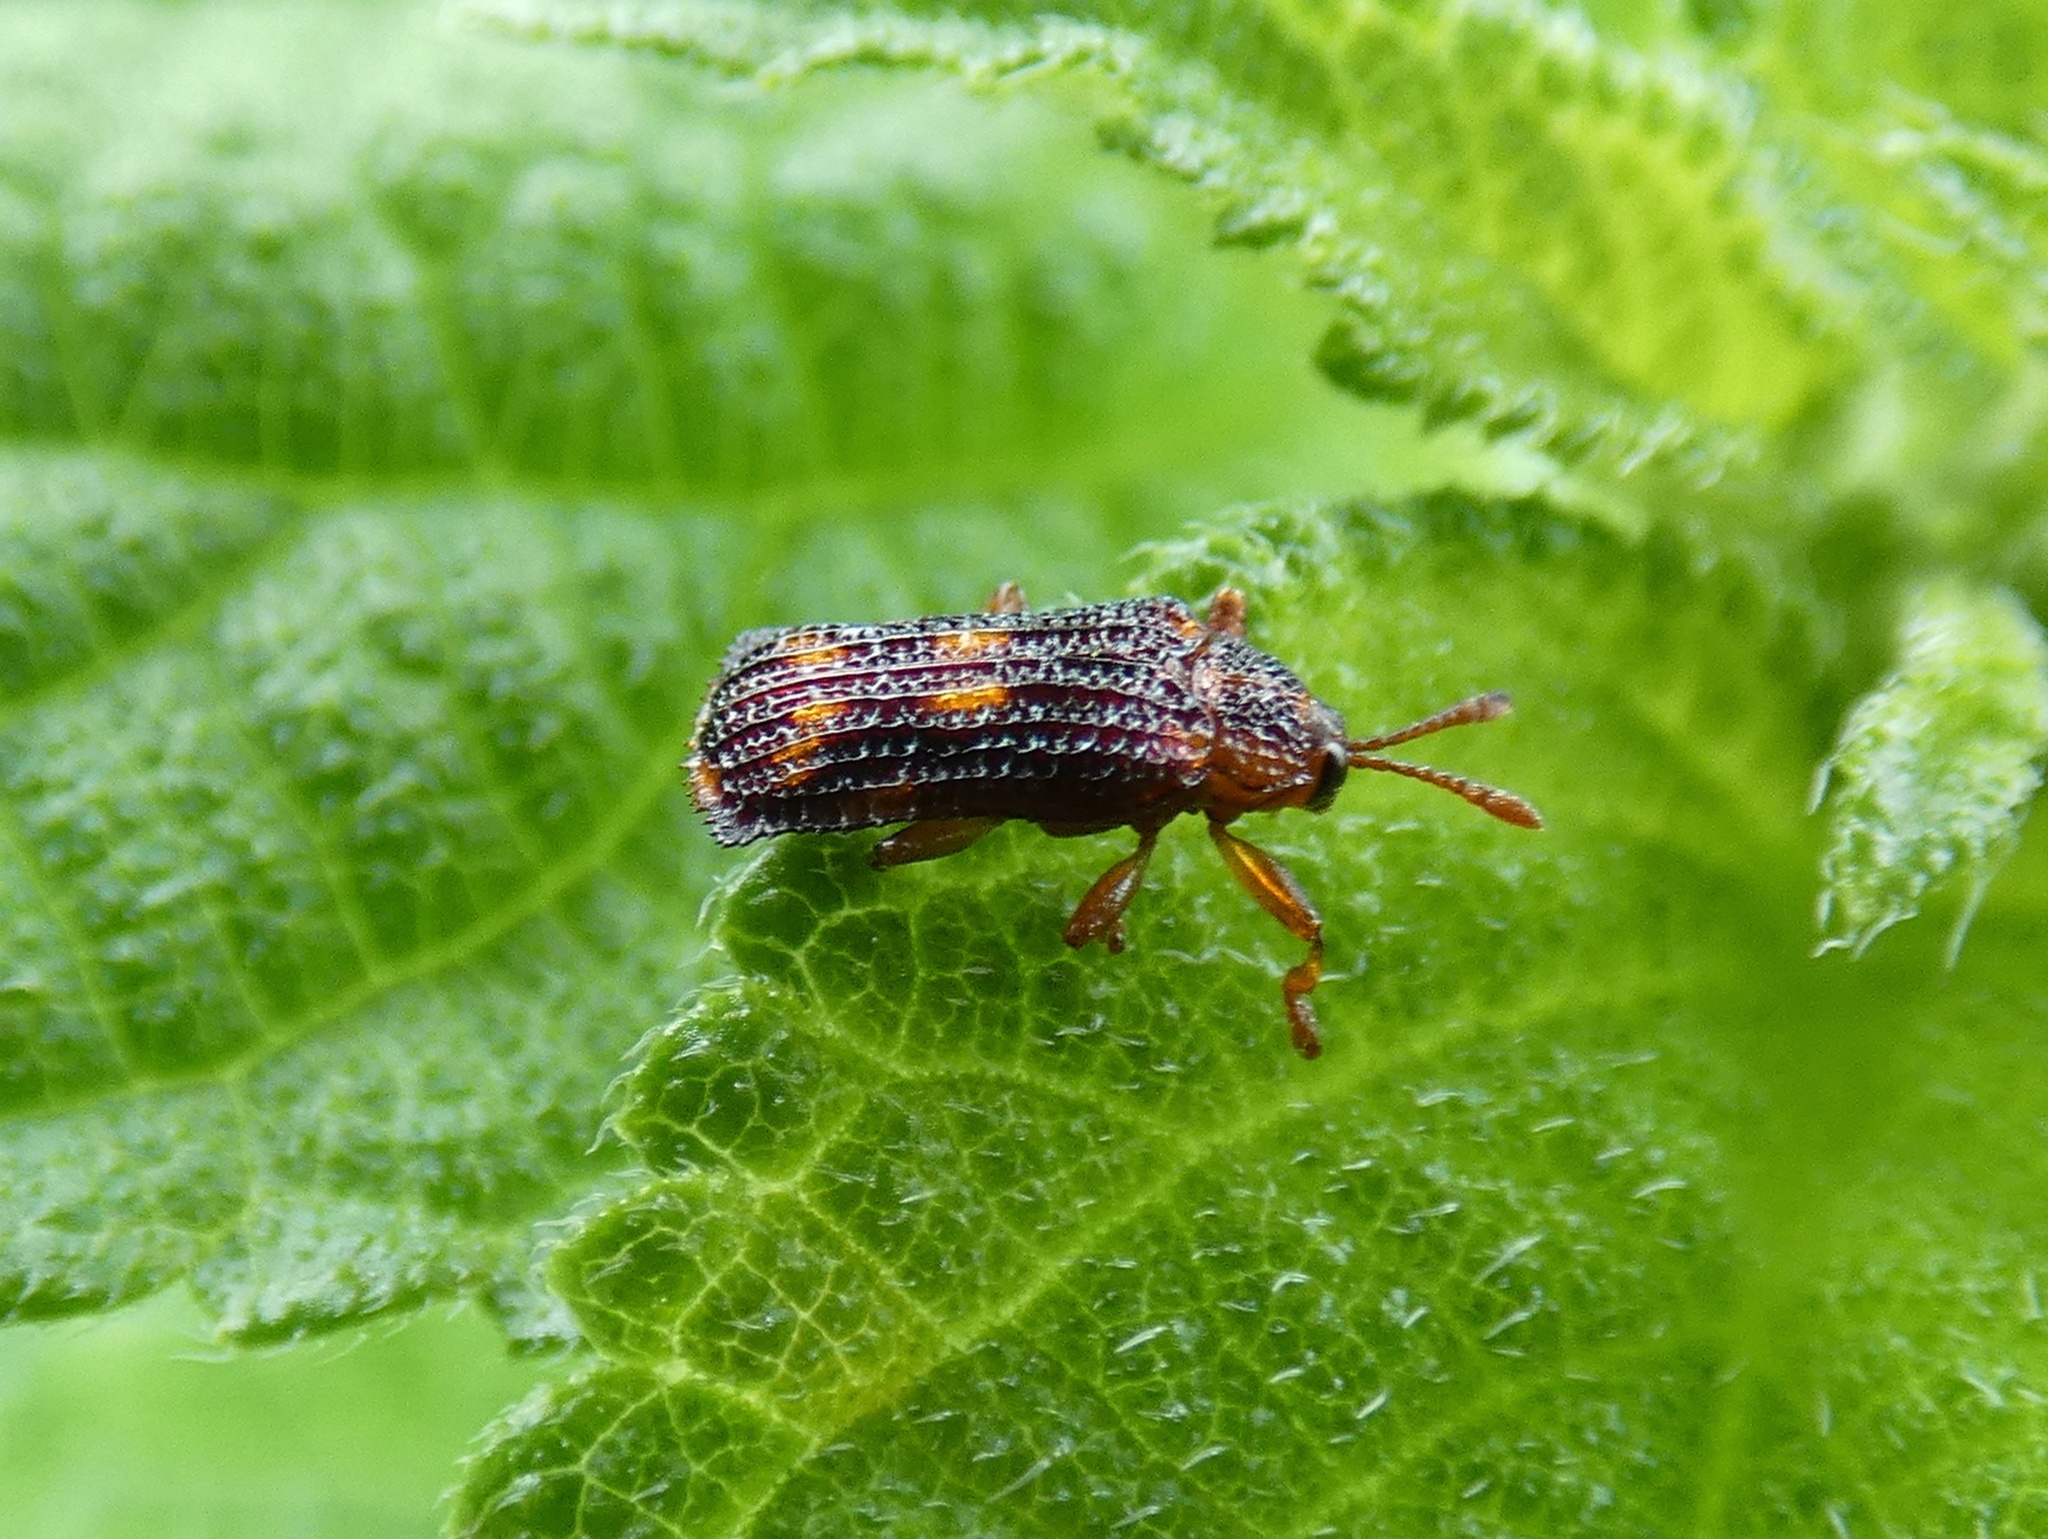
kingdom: Animalia
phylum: Arthropoda
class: Insecta
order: Coleoptera
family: Chrysomelidae
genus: Uroplata
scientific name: Uroplata girardi
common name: Lantana leafminer
